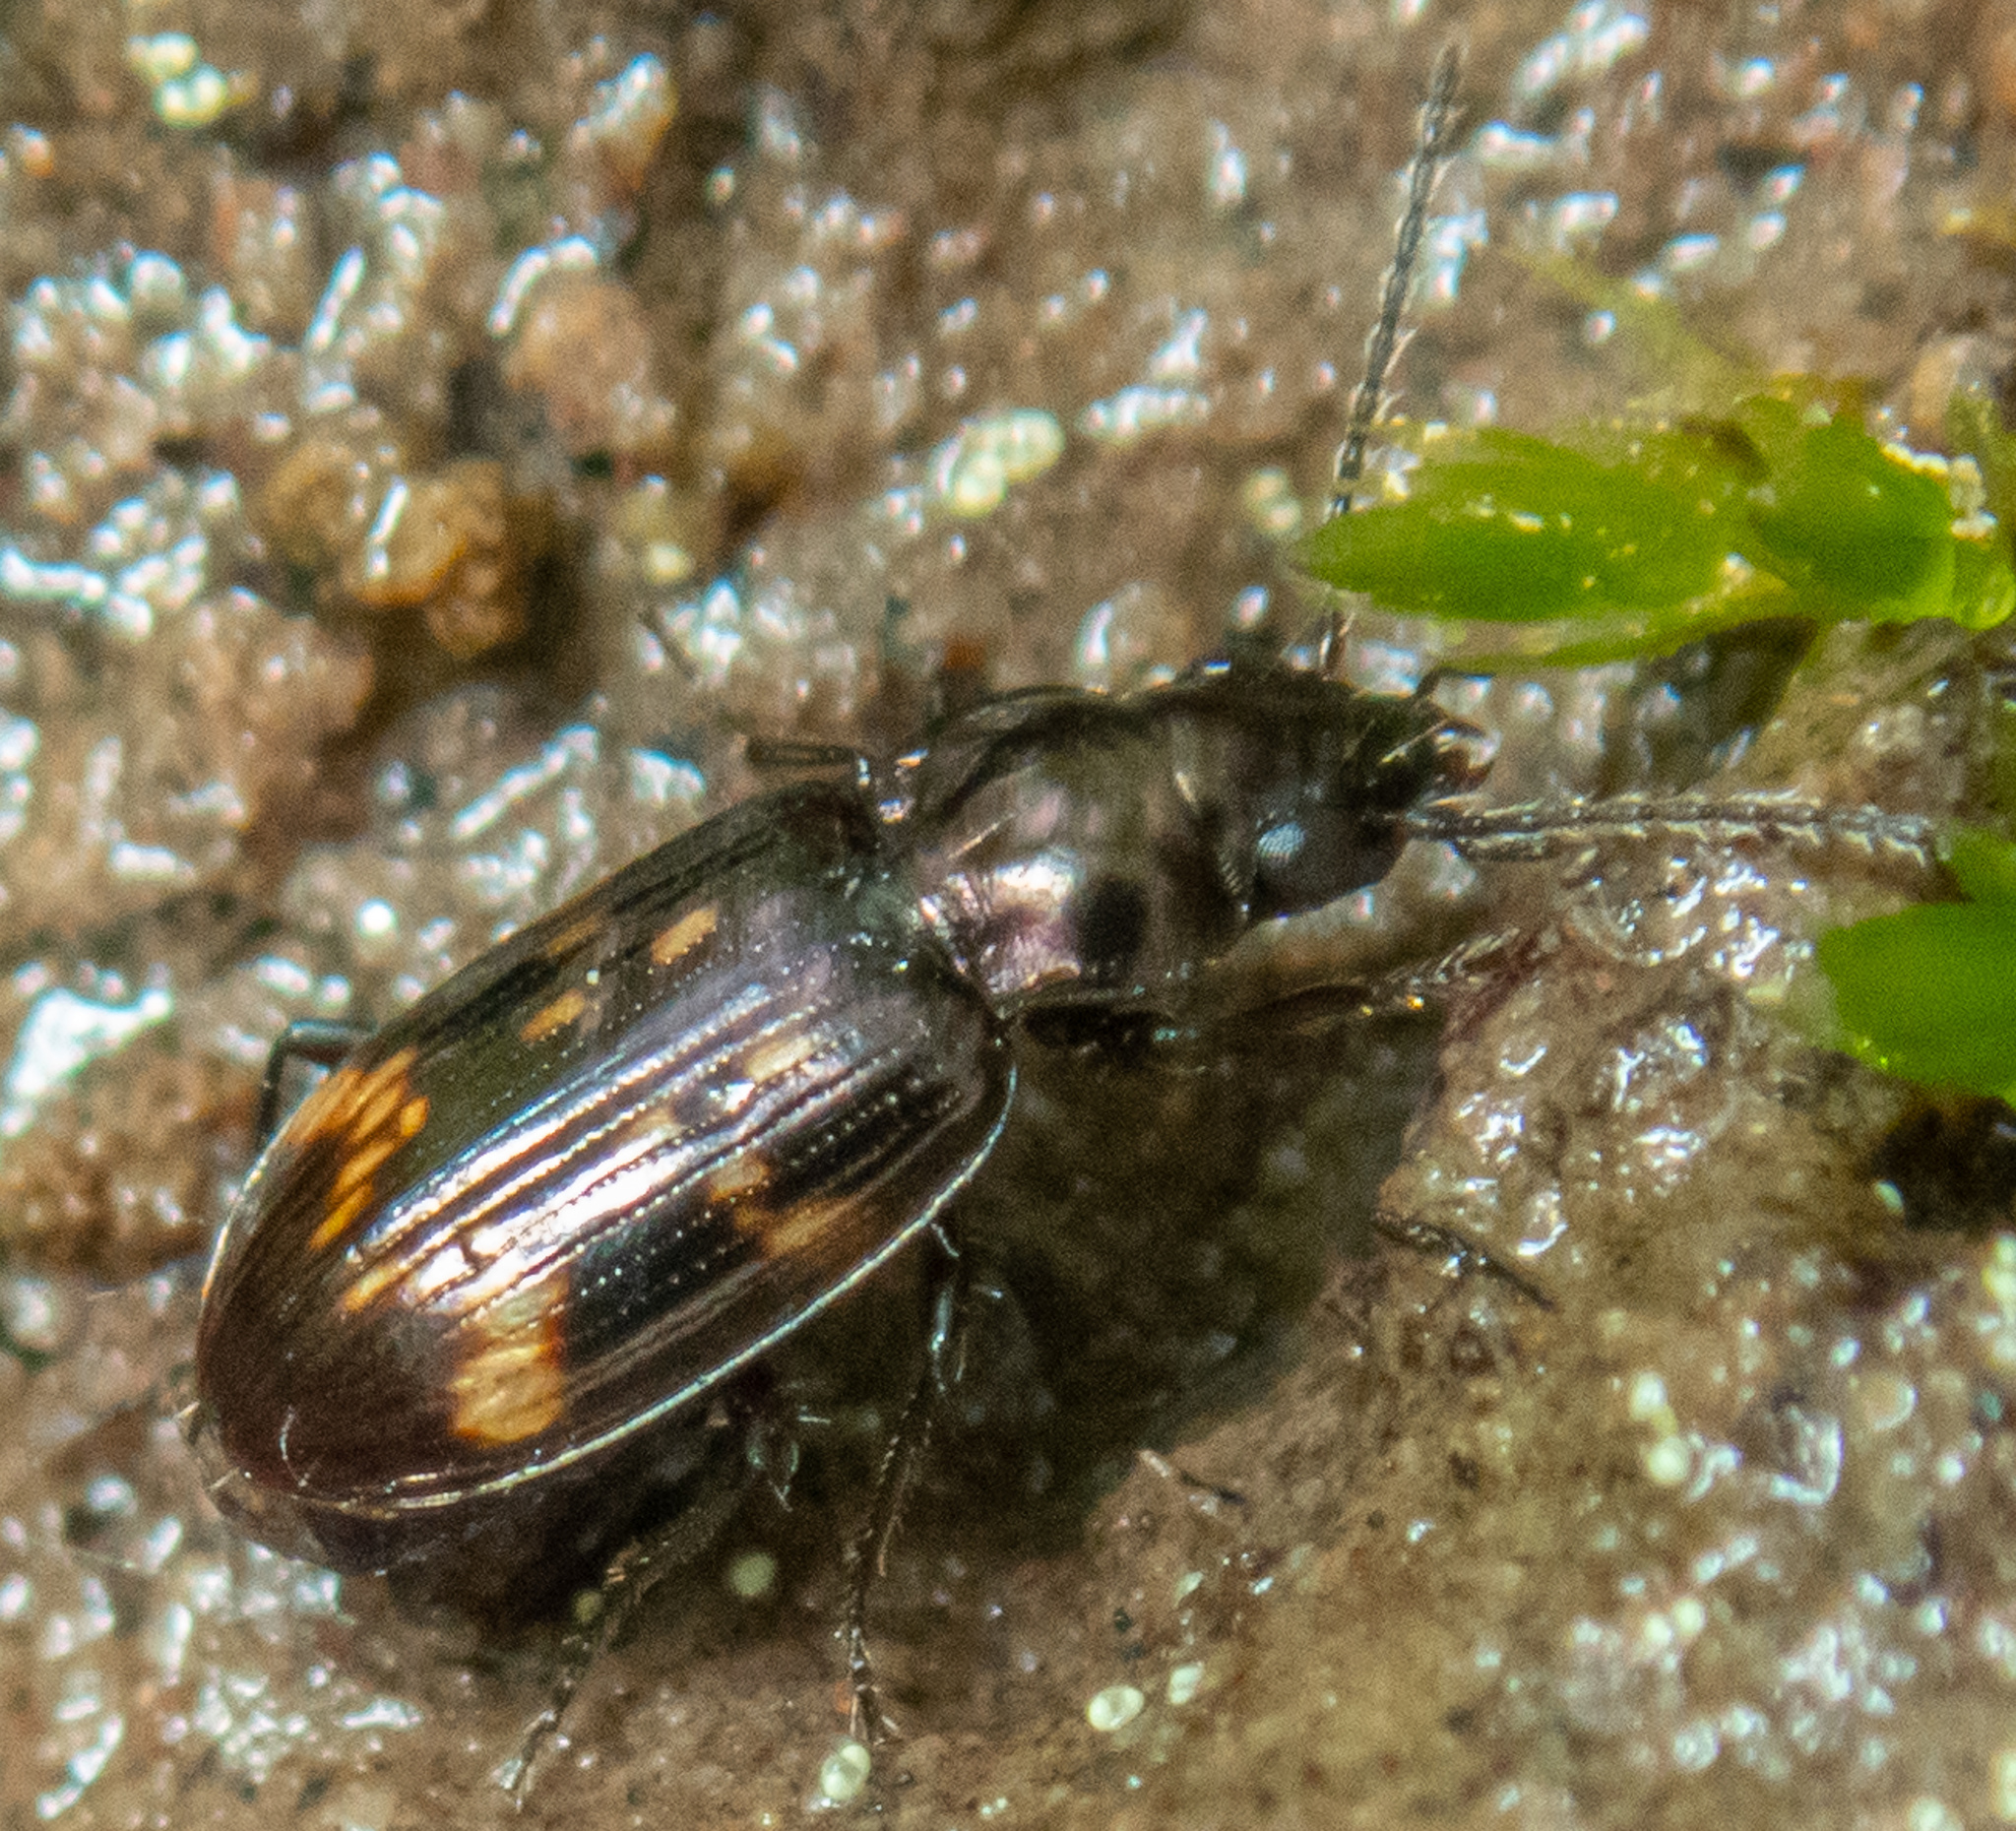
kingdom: Animalia
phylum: Arthropoda
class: Insecta
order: Coleoptera
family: Carabidae
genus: Bembidion
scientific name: Bembidion semipunctatum
